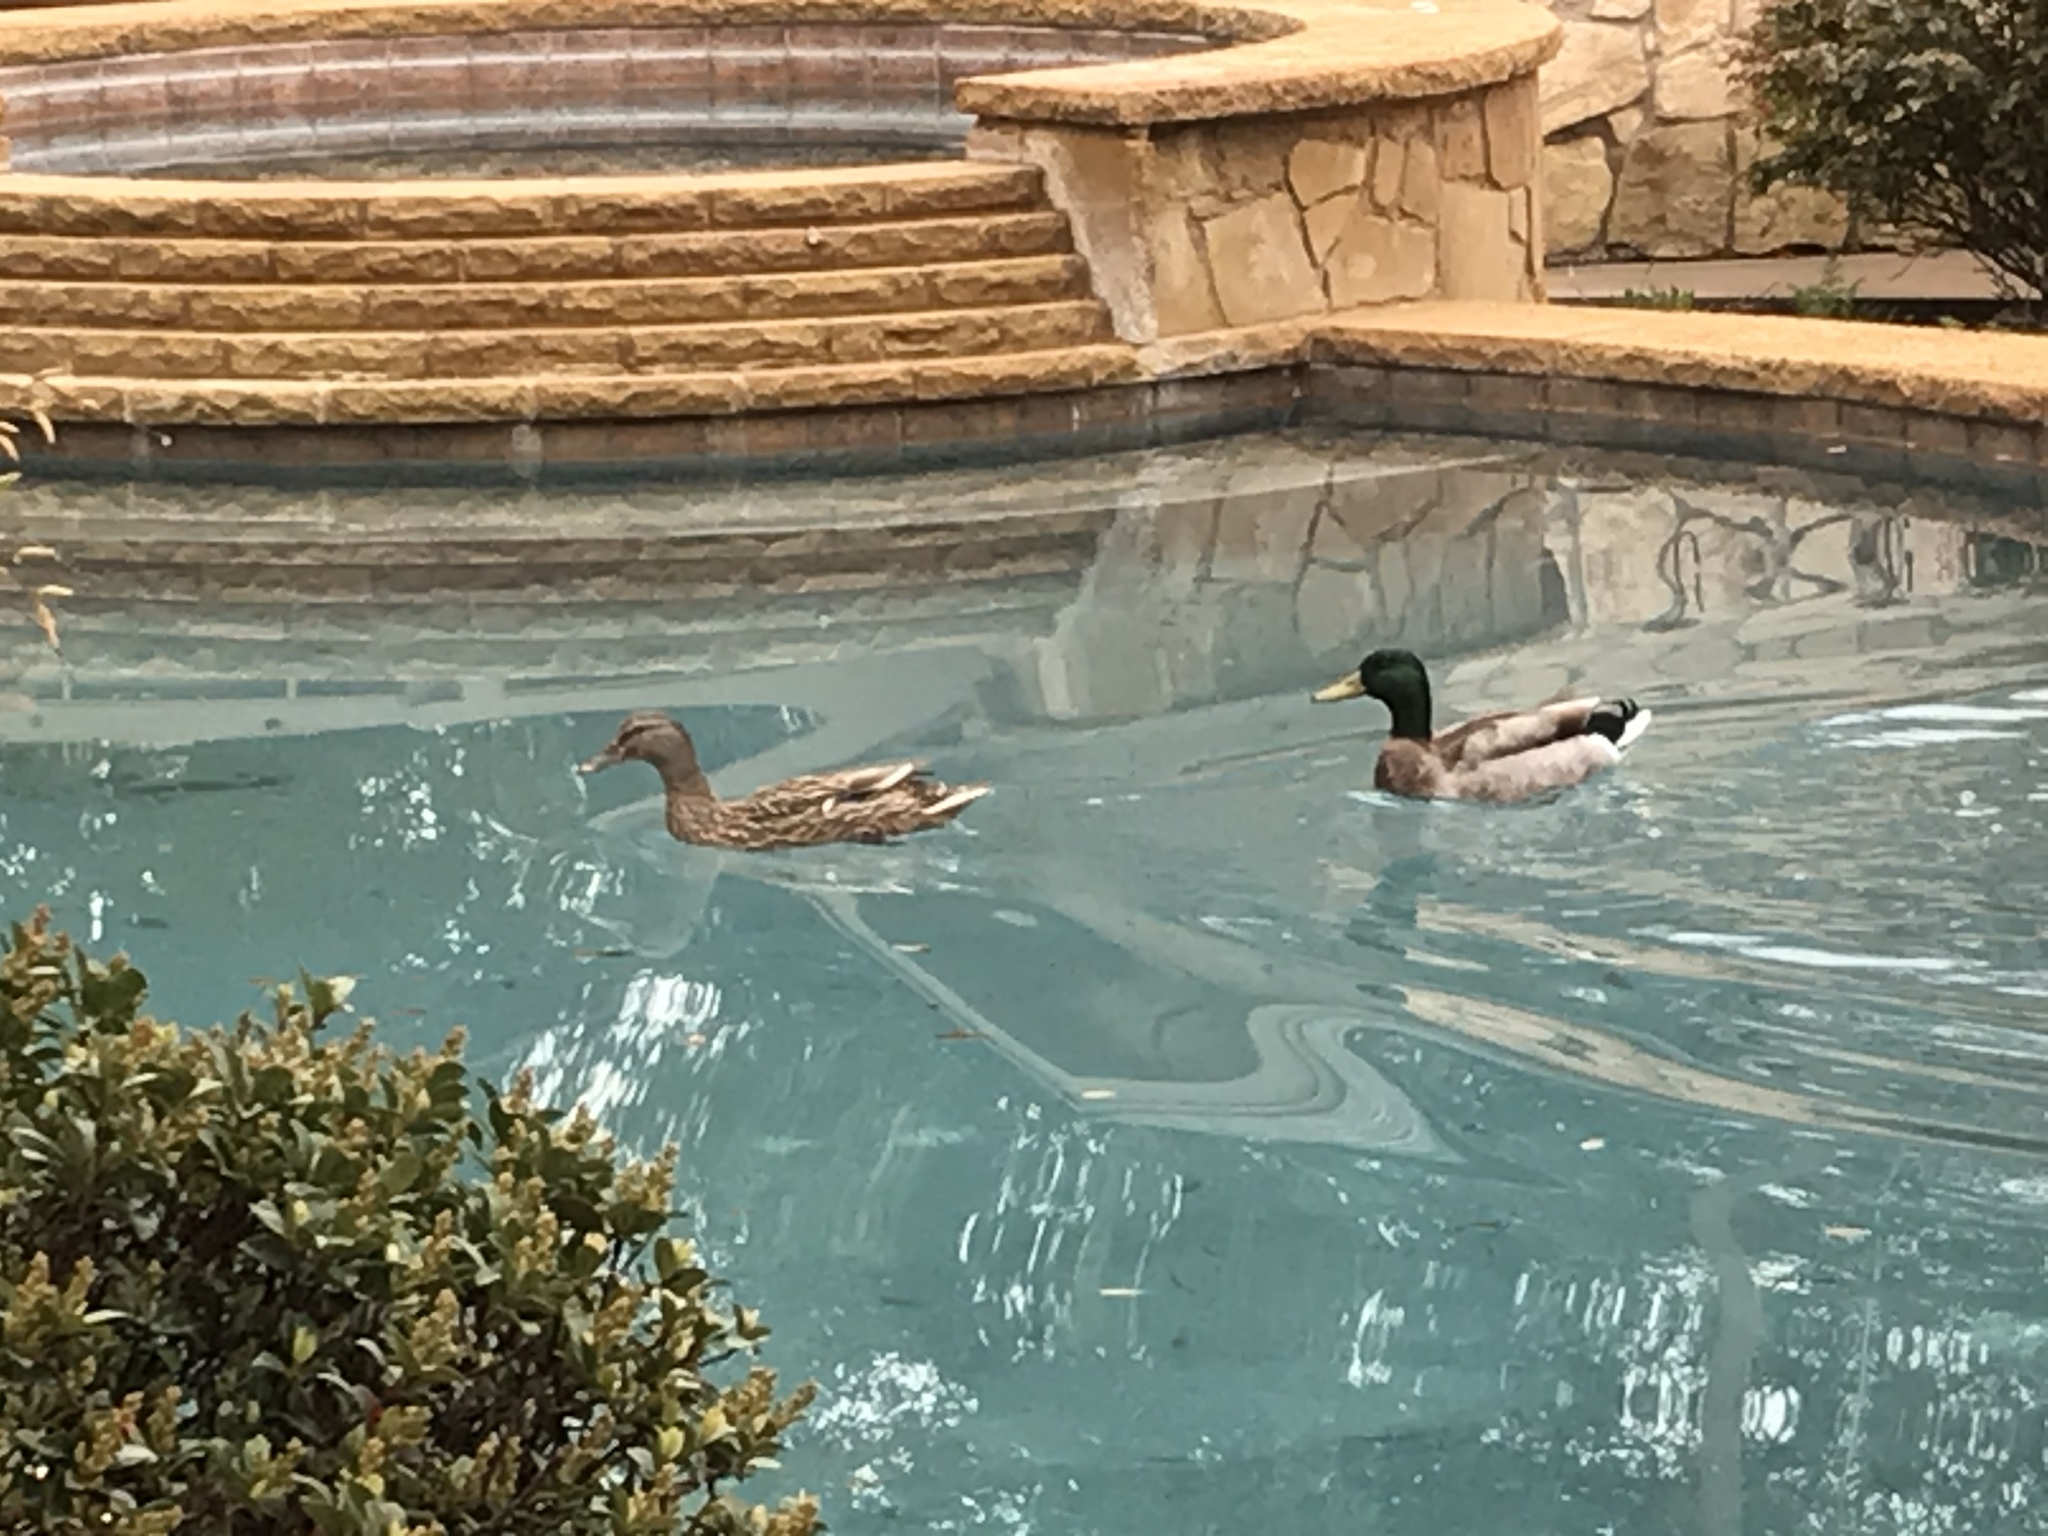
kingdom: Animalia
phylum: Chordata
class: Aves
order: Anseriformes
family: Anatidae
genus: Anas
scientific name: Anas platyrhynchos
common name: Mallard
